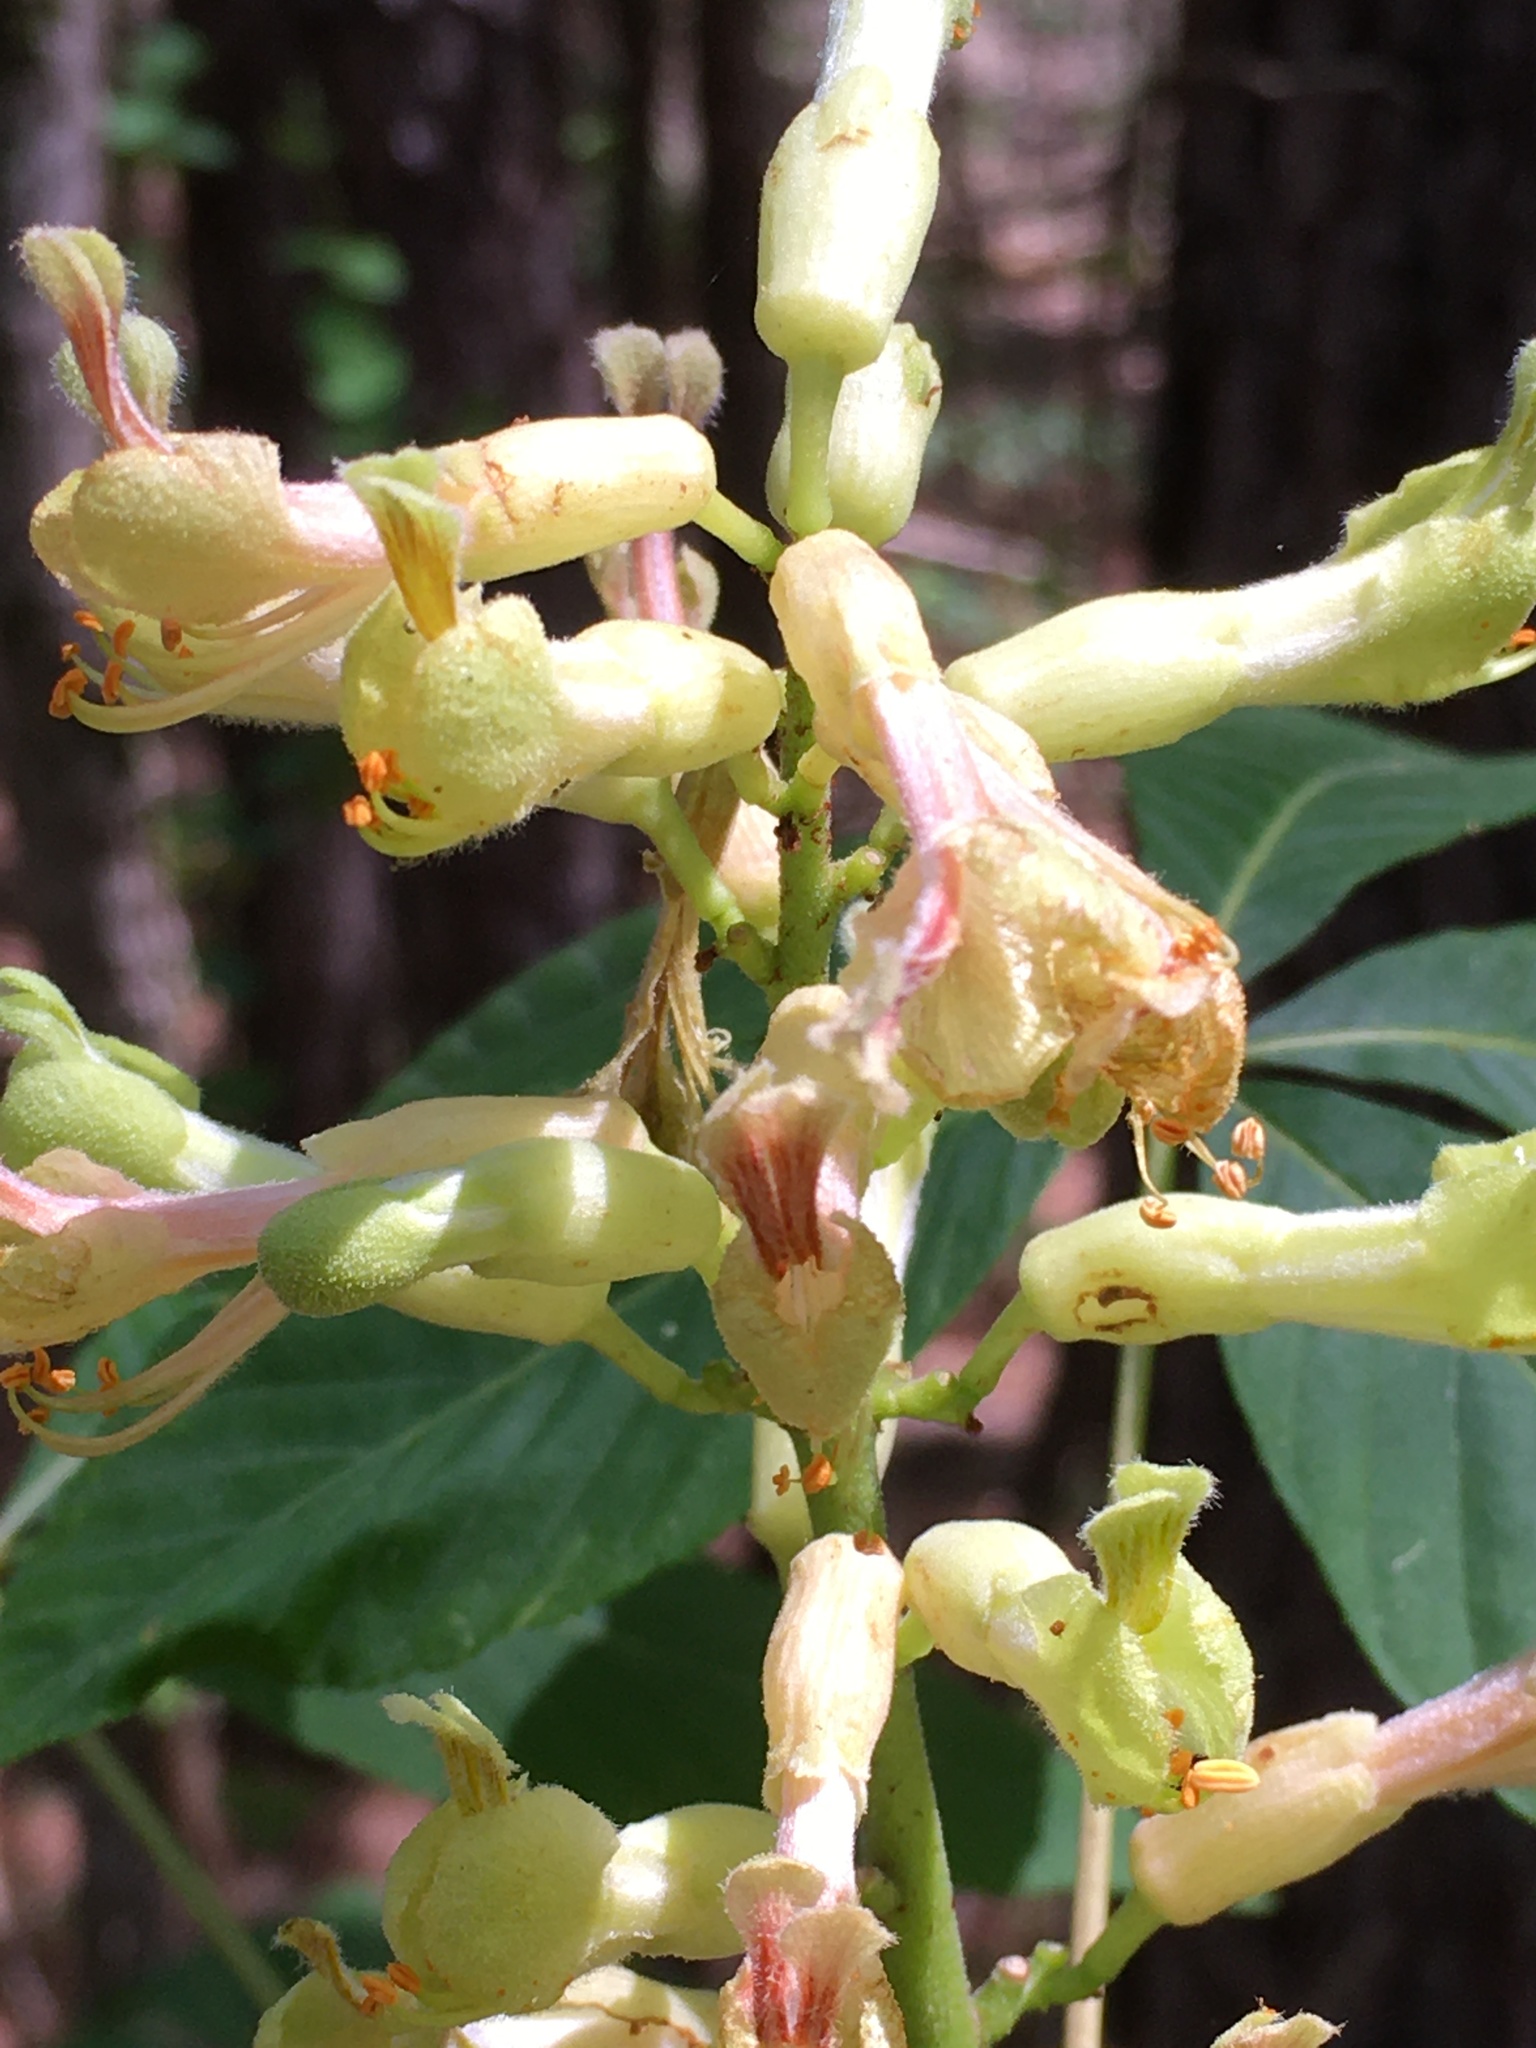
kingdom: Plantae
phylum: Tracheophyta
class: Magnoliopsida
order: Sapindales
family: Sapindaceae
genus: Aesculus
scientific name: Aesculus sylvatica
